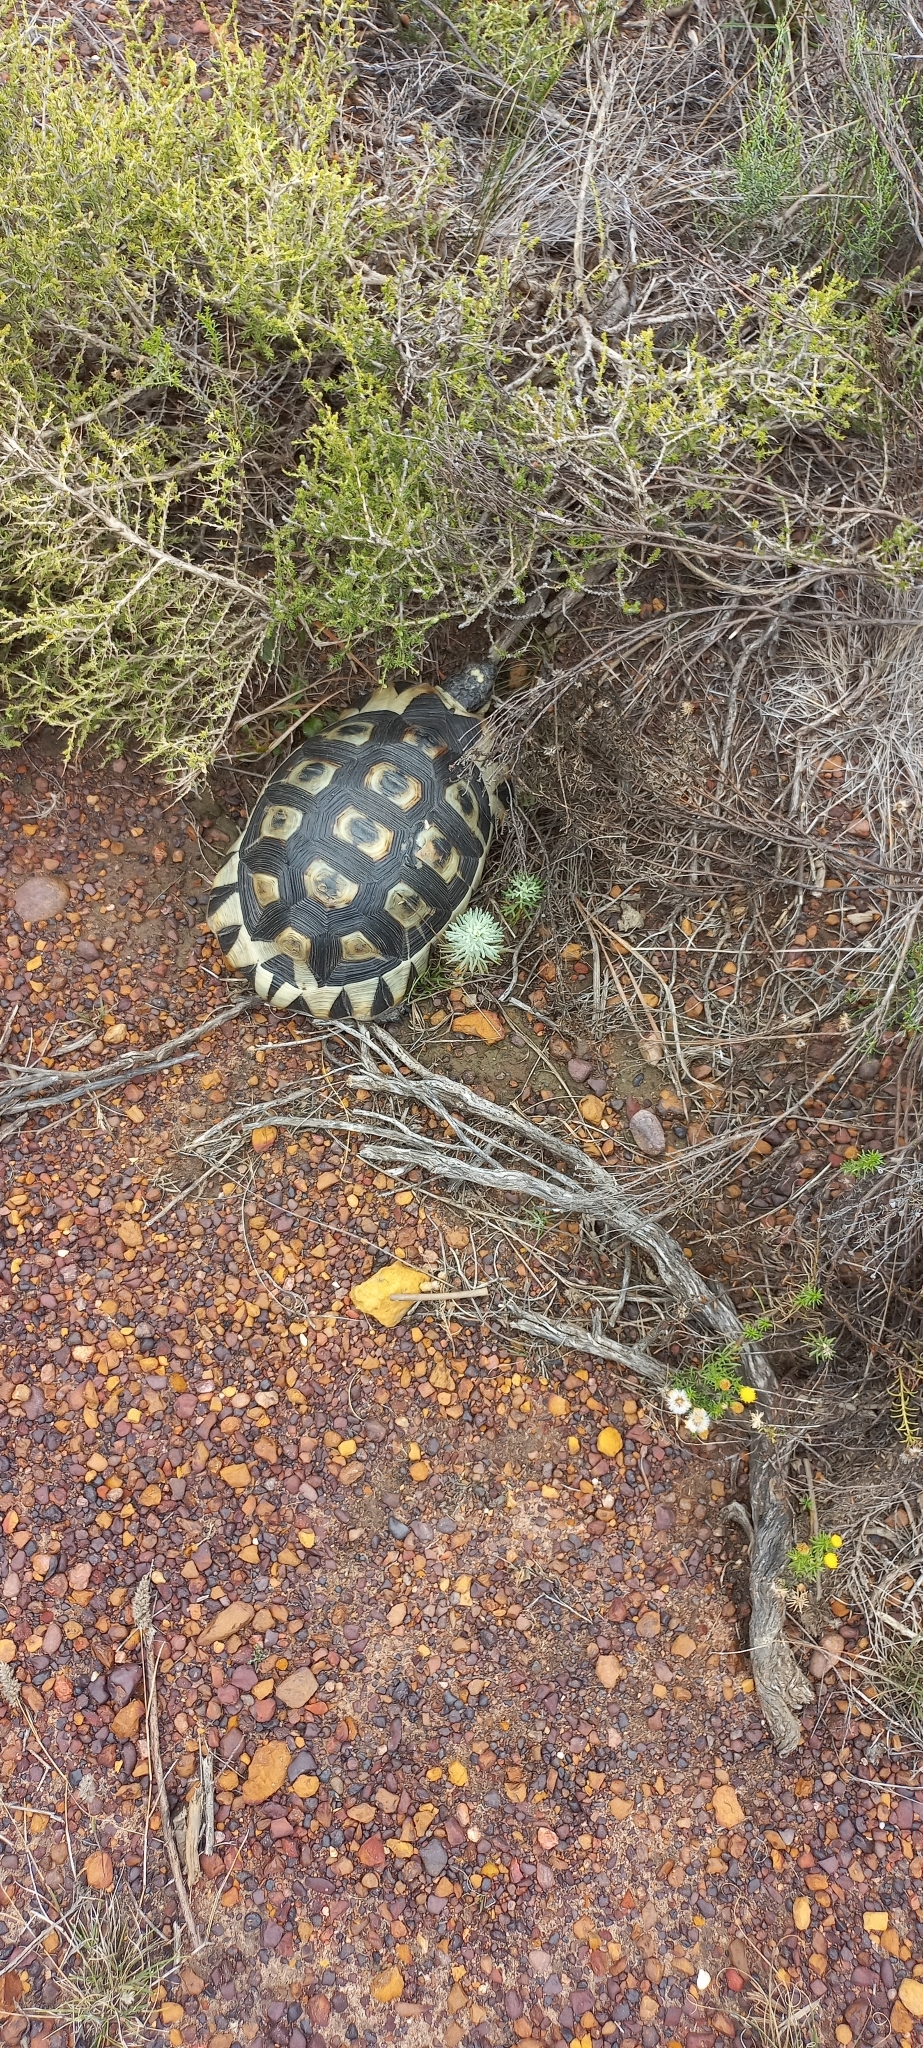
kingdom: Animalia
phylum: Chordata
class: Testudines
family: Testudinidae
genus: Chersina
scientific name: Chersina angulata
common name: South african bowsprit tortoise
